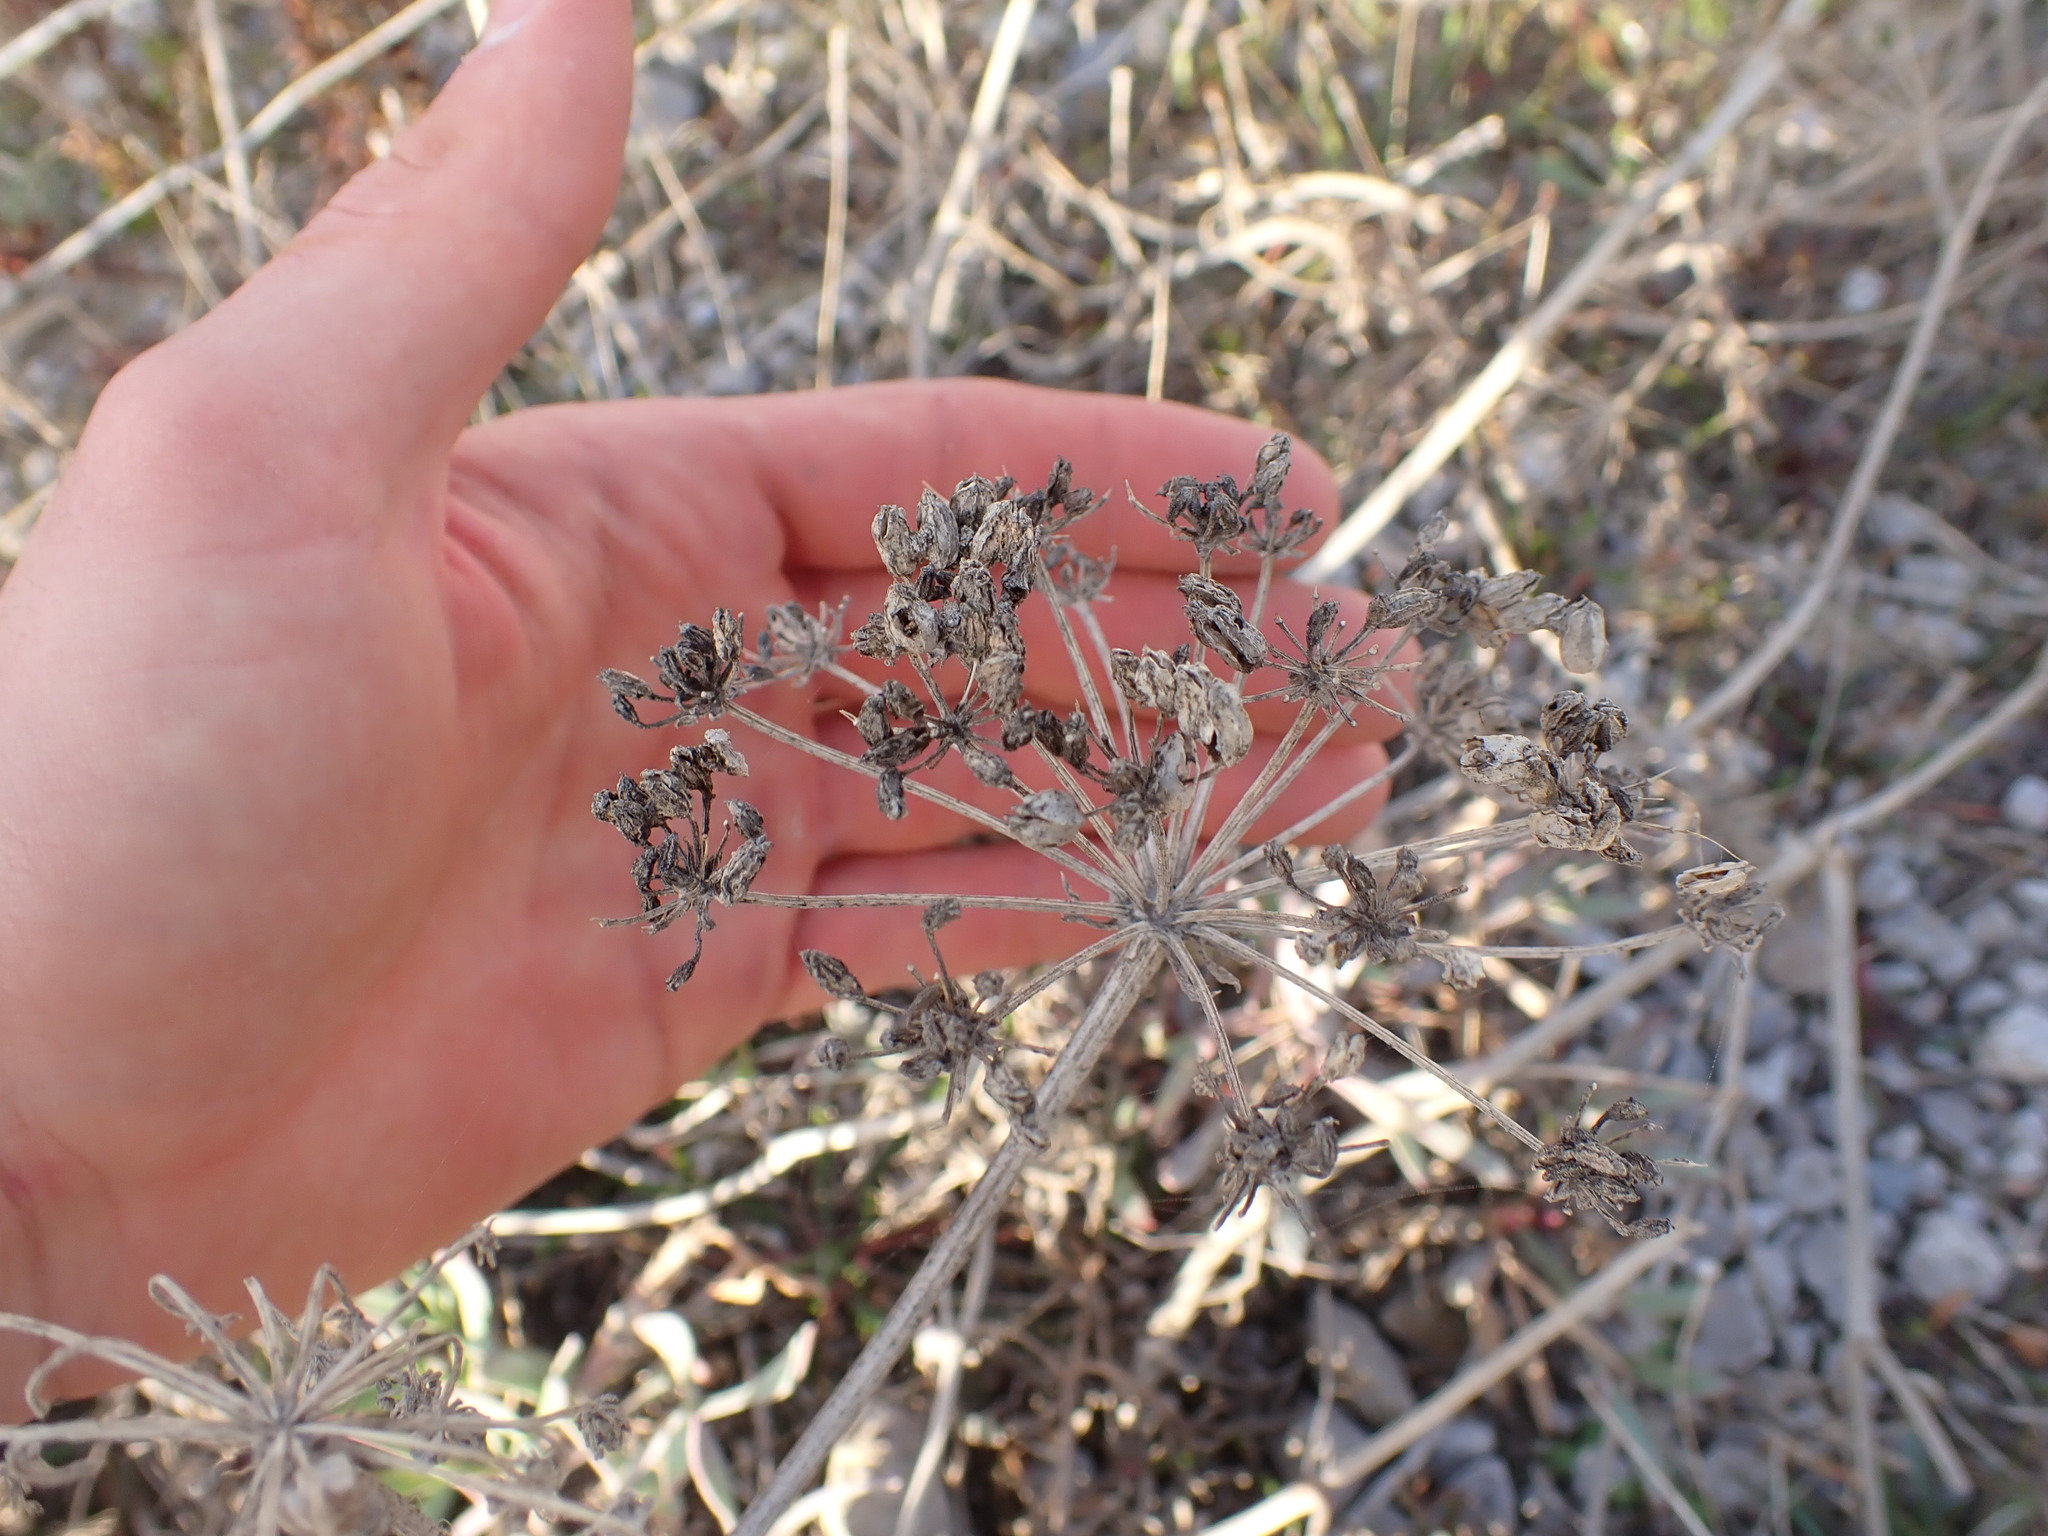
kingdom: Plantae
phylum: Tracheophyta
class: Magnoliopsida
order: Apiales
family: Apiaceae
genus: Crithmum
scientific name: Crithmum maritimum
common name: Rock samphire
